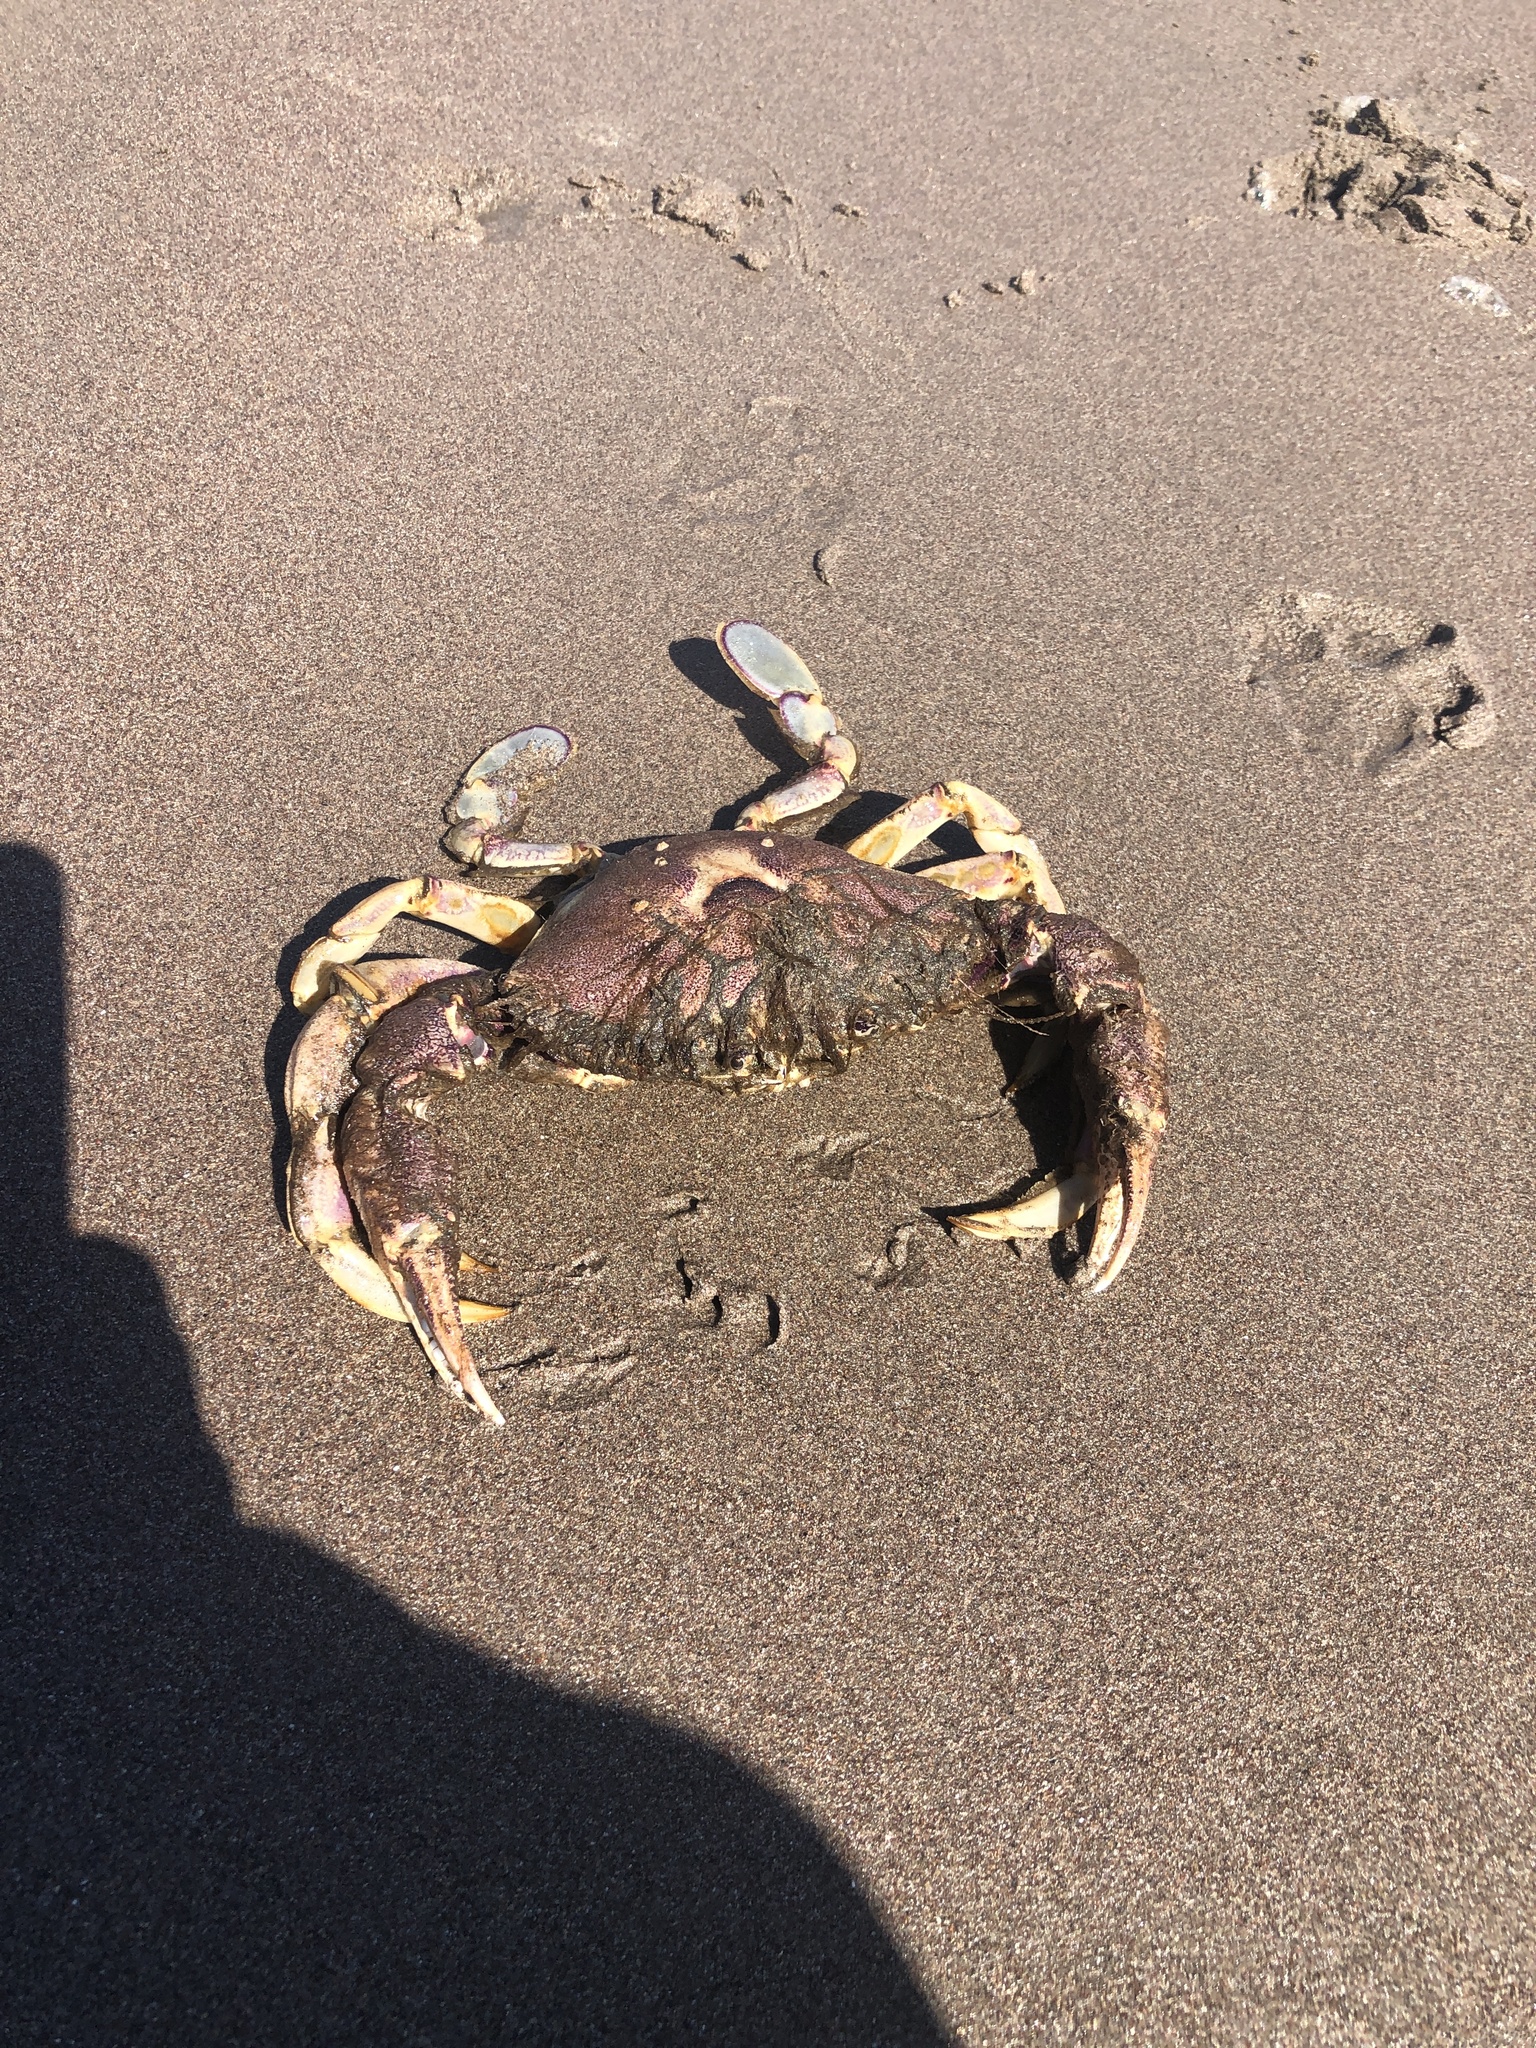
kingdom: Animalia
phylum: Arthropoda
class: Malacostraca
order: Decapoda
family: Ovalipidae
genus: Ovalipes
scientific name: Ovalipes trimaculatus
